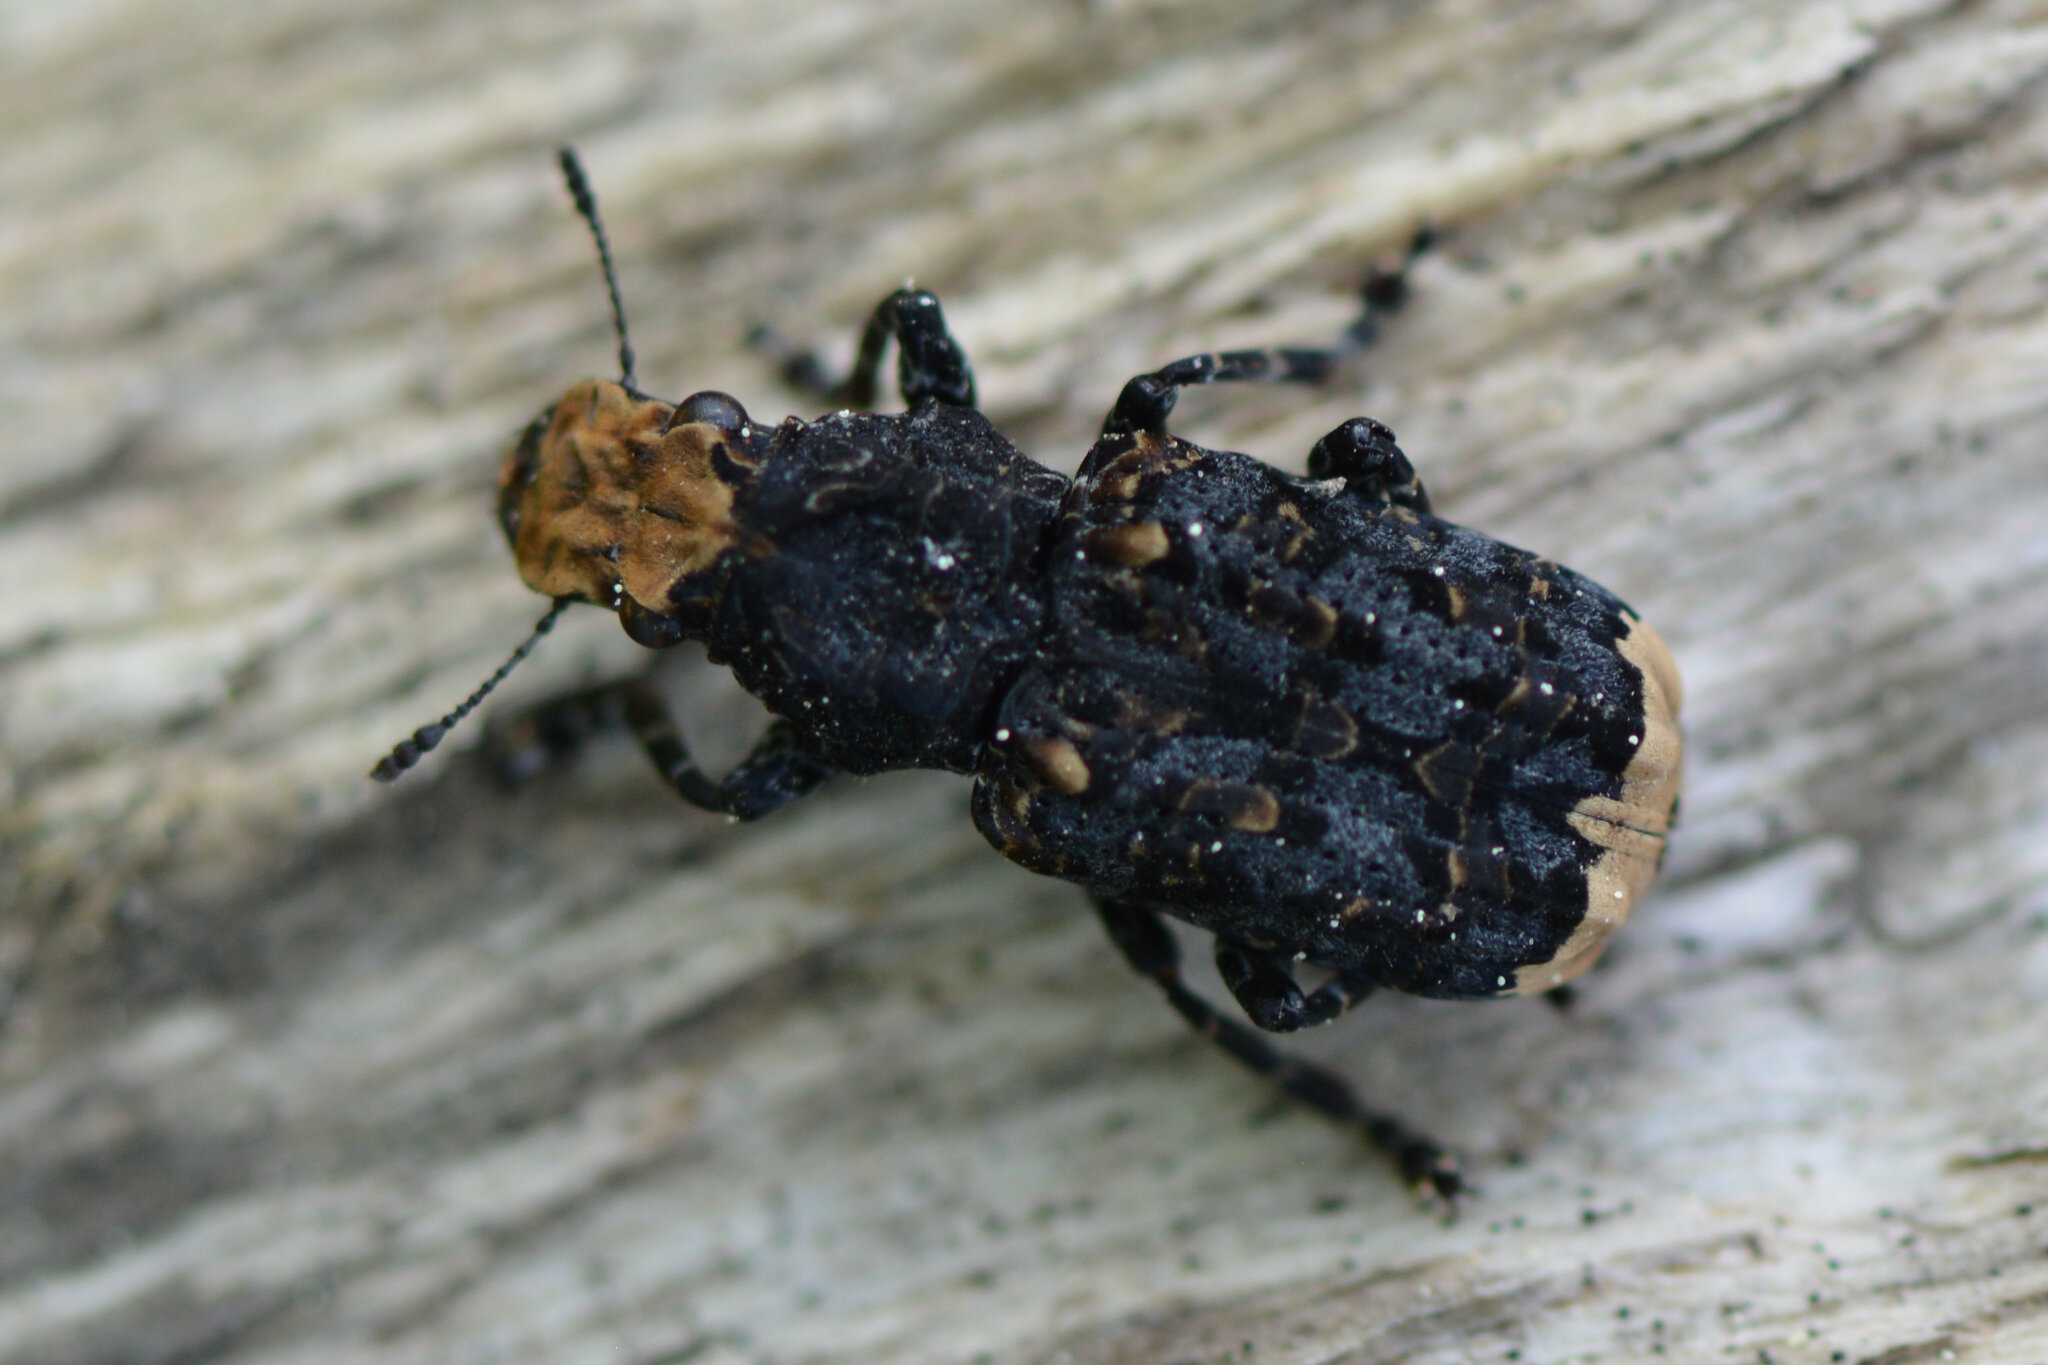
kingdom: Animalia
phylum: Arthropoda
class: Insecta
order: Coleoptera
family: Anthribidae
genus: Platyrhinus
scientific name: Platyrhinus resinosus
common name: Cramp-ball fungus weevil
